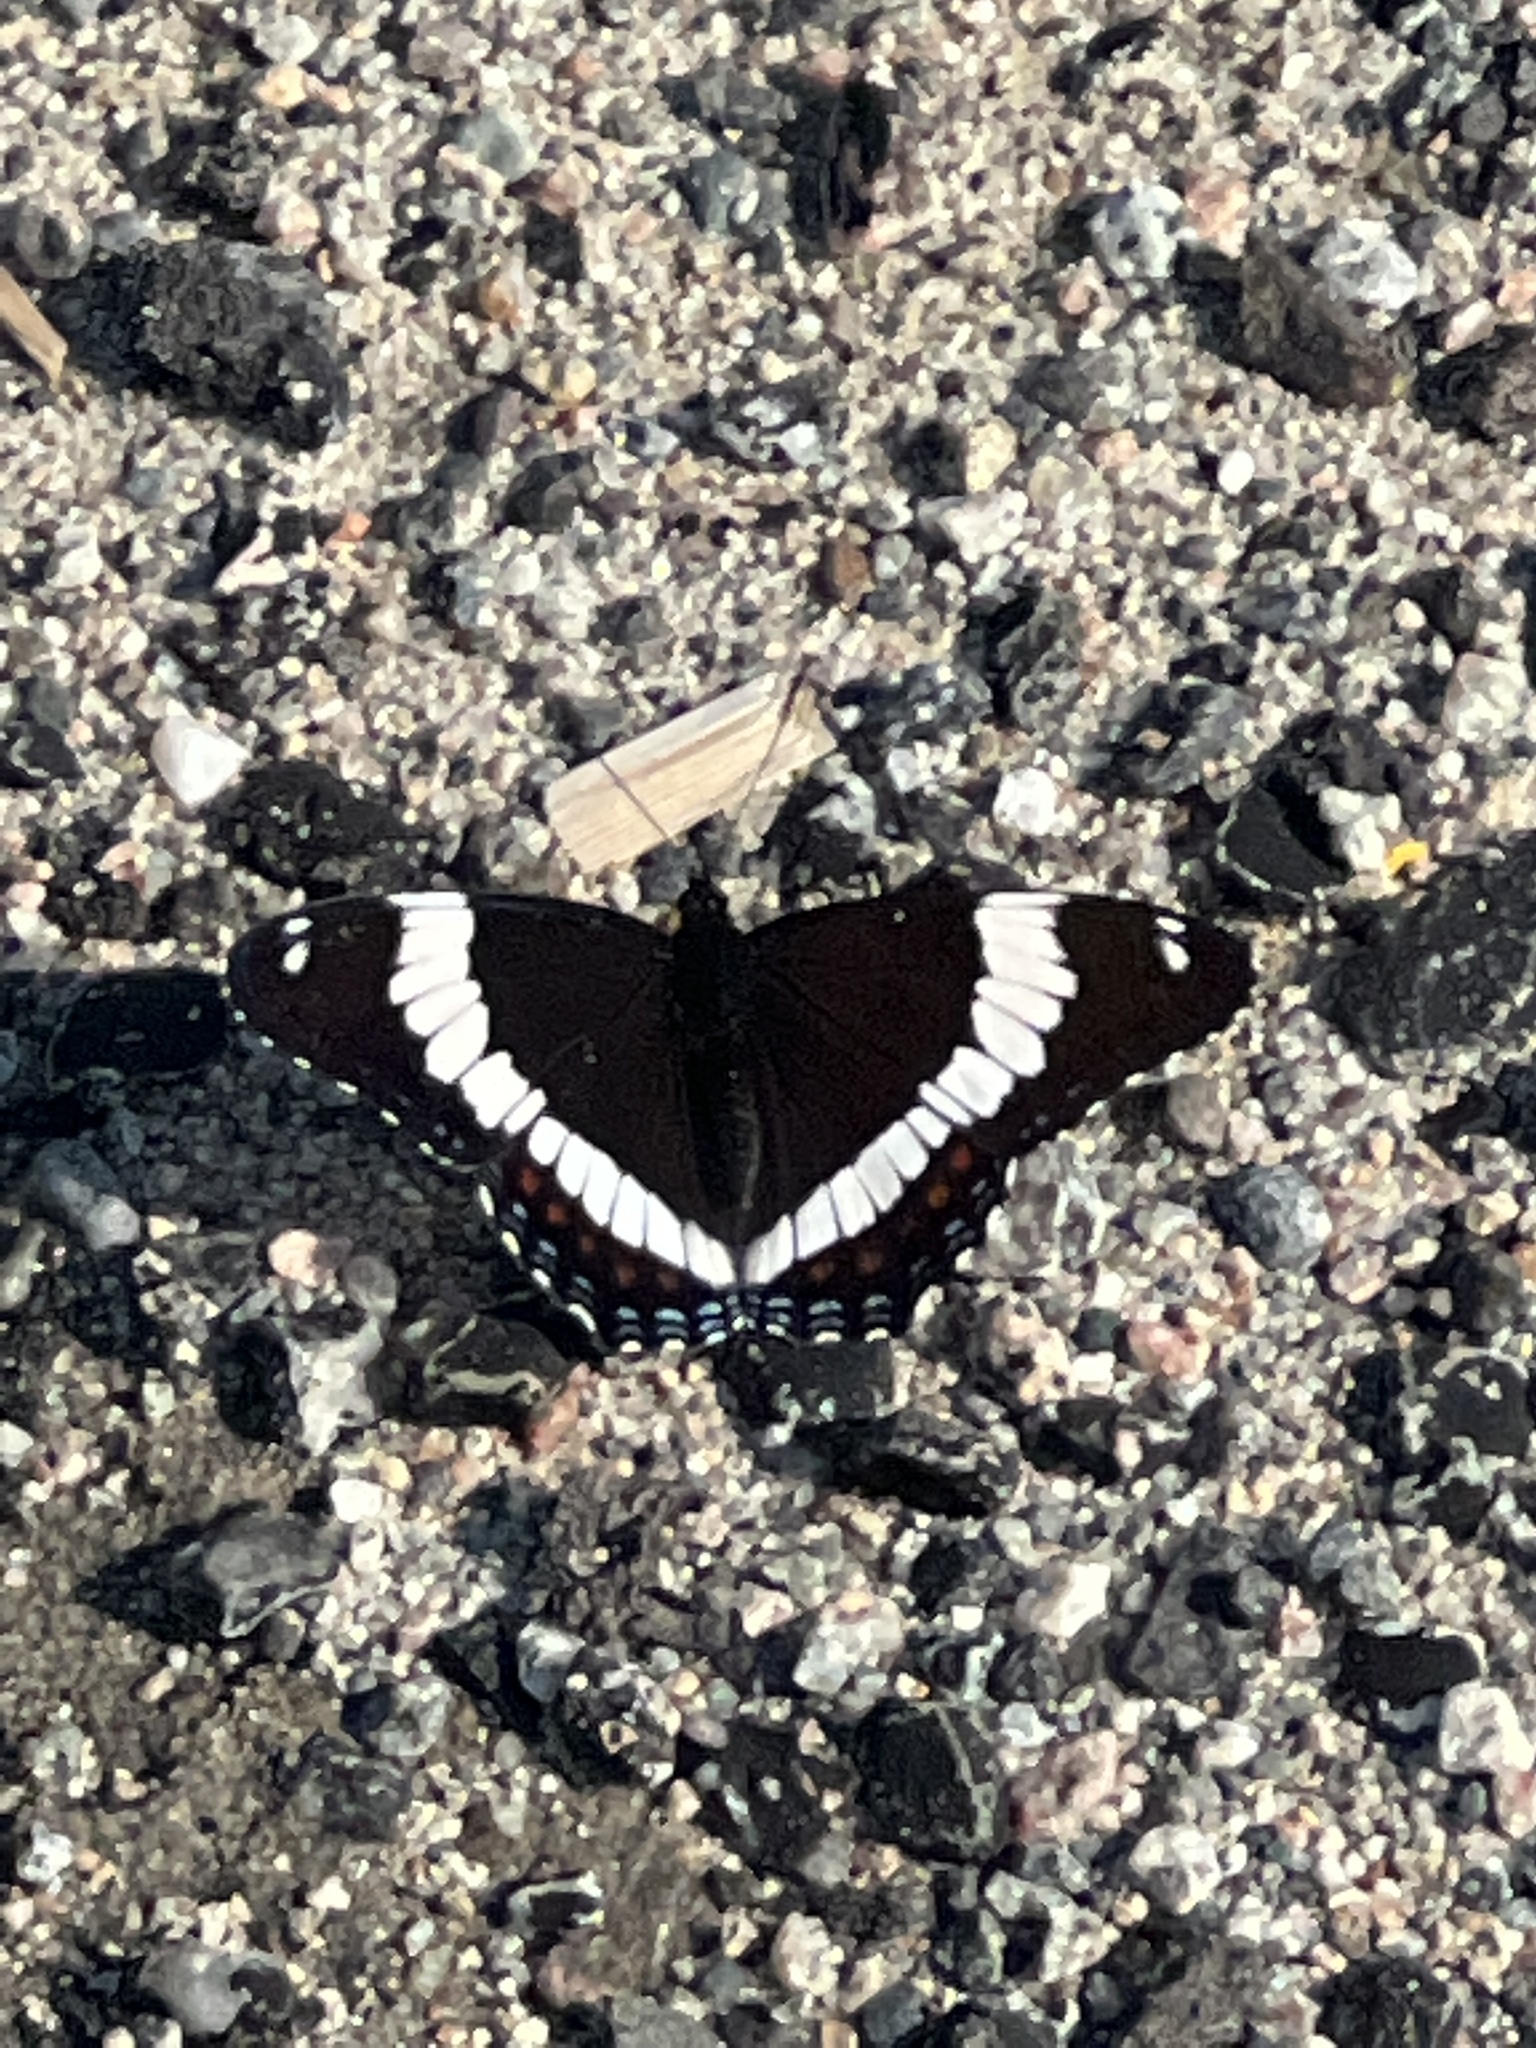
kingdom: Animalia
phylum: Arthropoda
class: Insecta
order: Lepidoptera
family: Nymphalidae
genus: Limenitis
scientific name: Limenitis arthemis
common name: Red-spotted admiral
